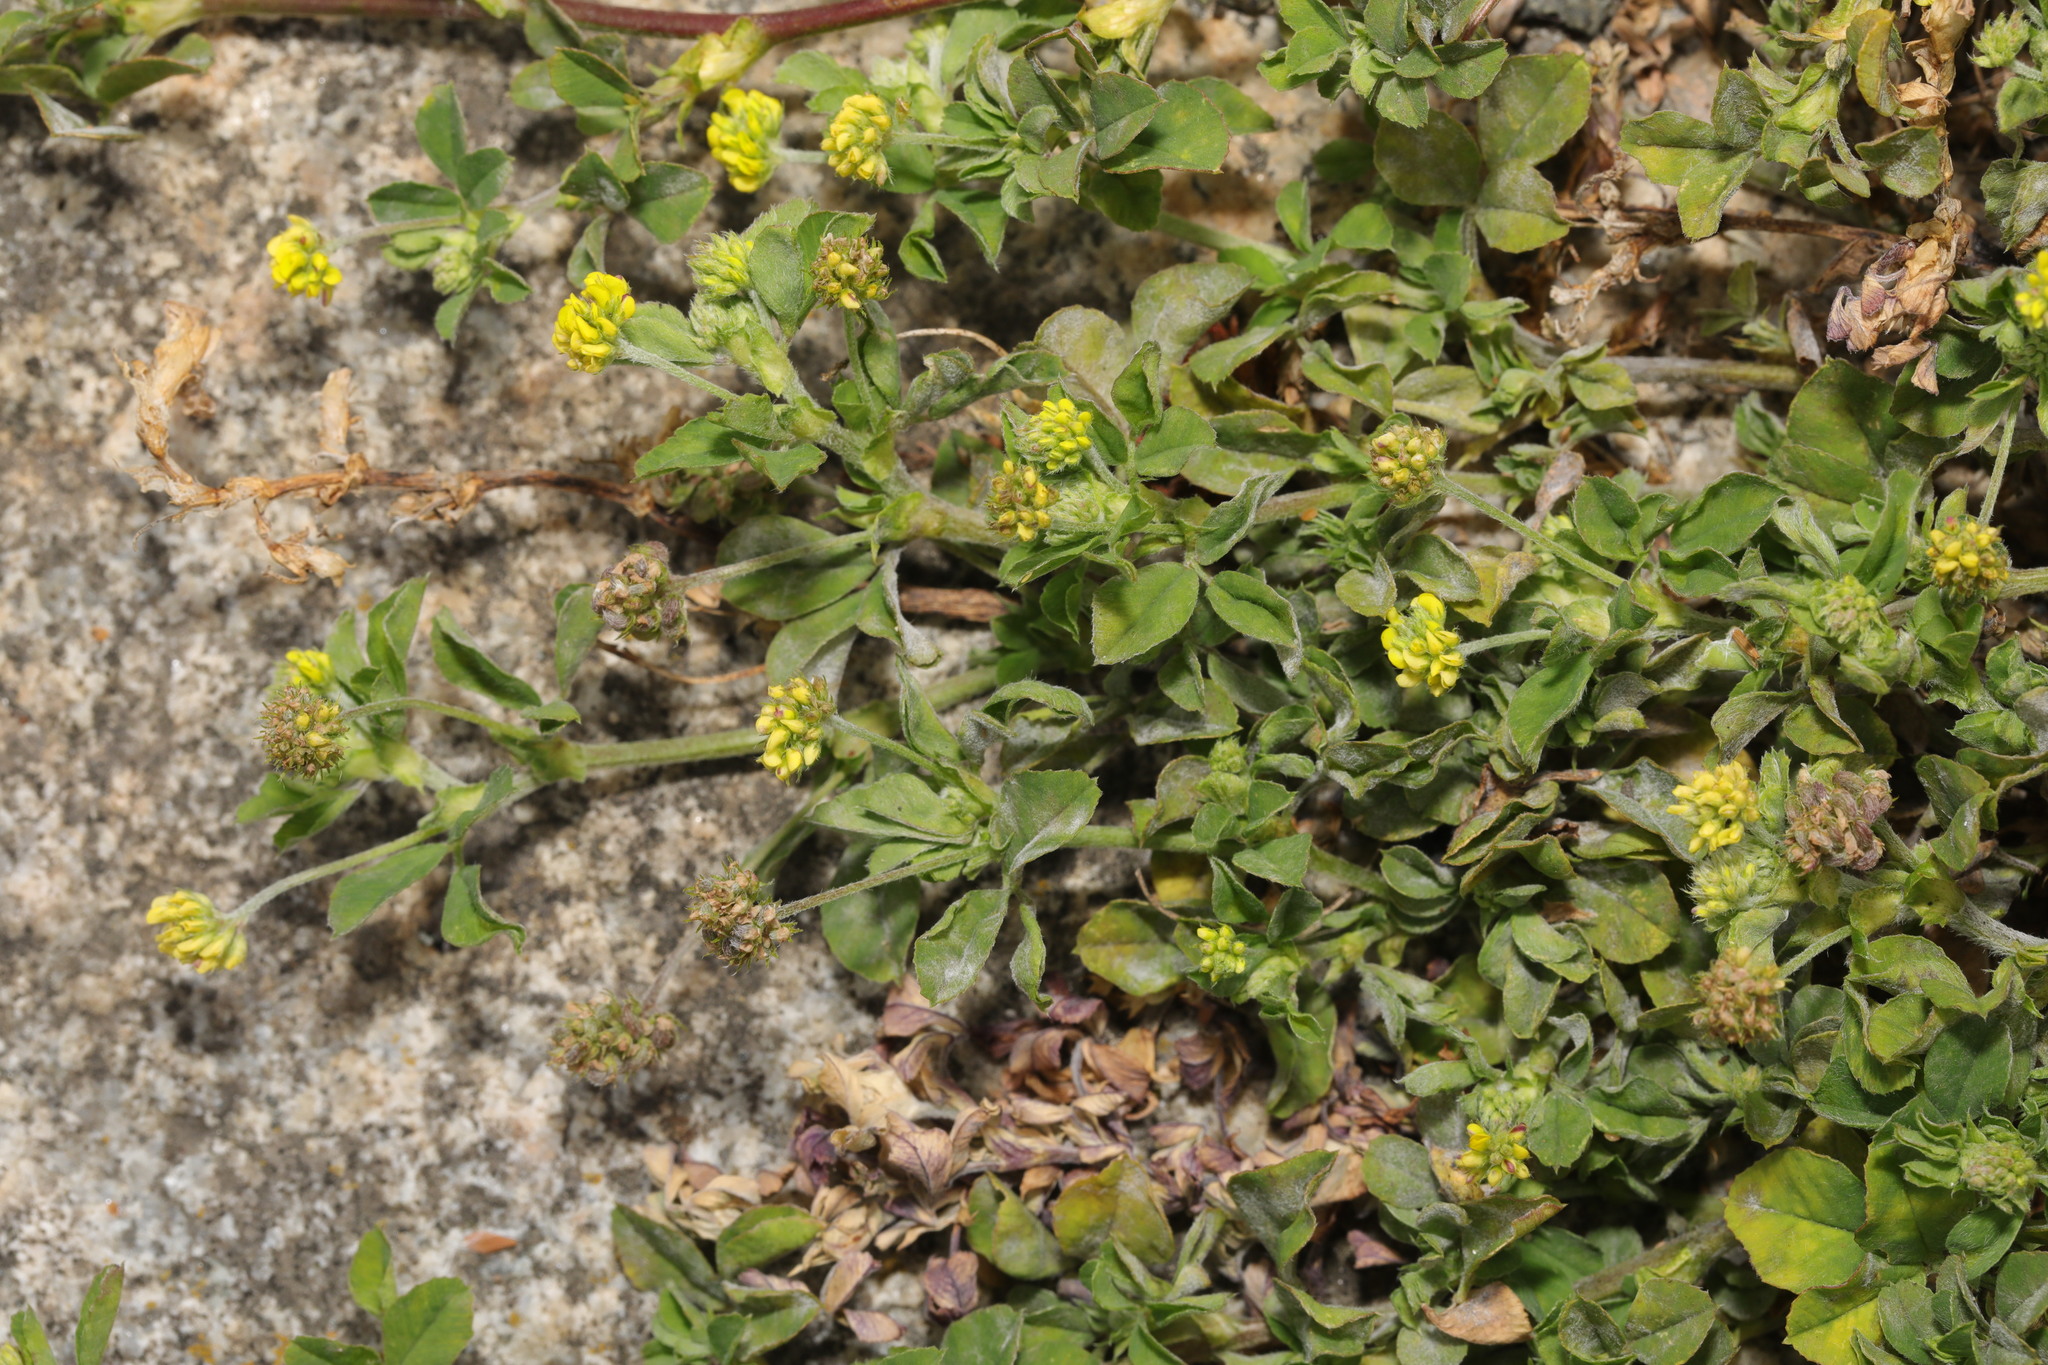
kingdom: Plantae
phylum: Tracheophyta
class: Magnoliopsida
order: Fabales
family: Fabaceae
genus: Medicago
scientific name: Medicago lupulina
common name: Black medick
